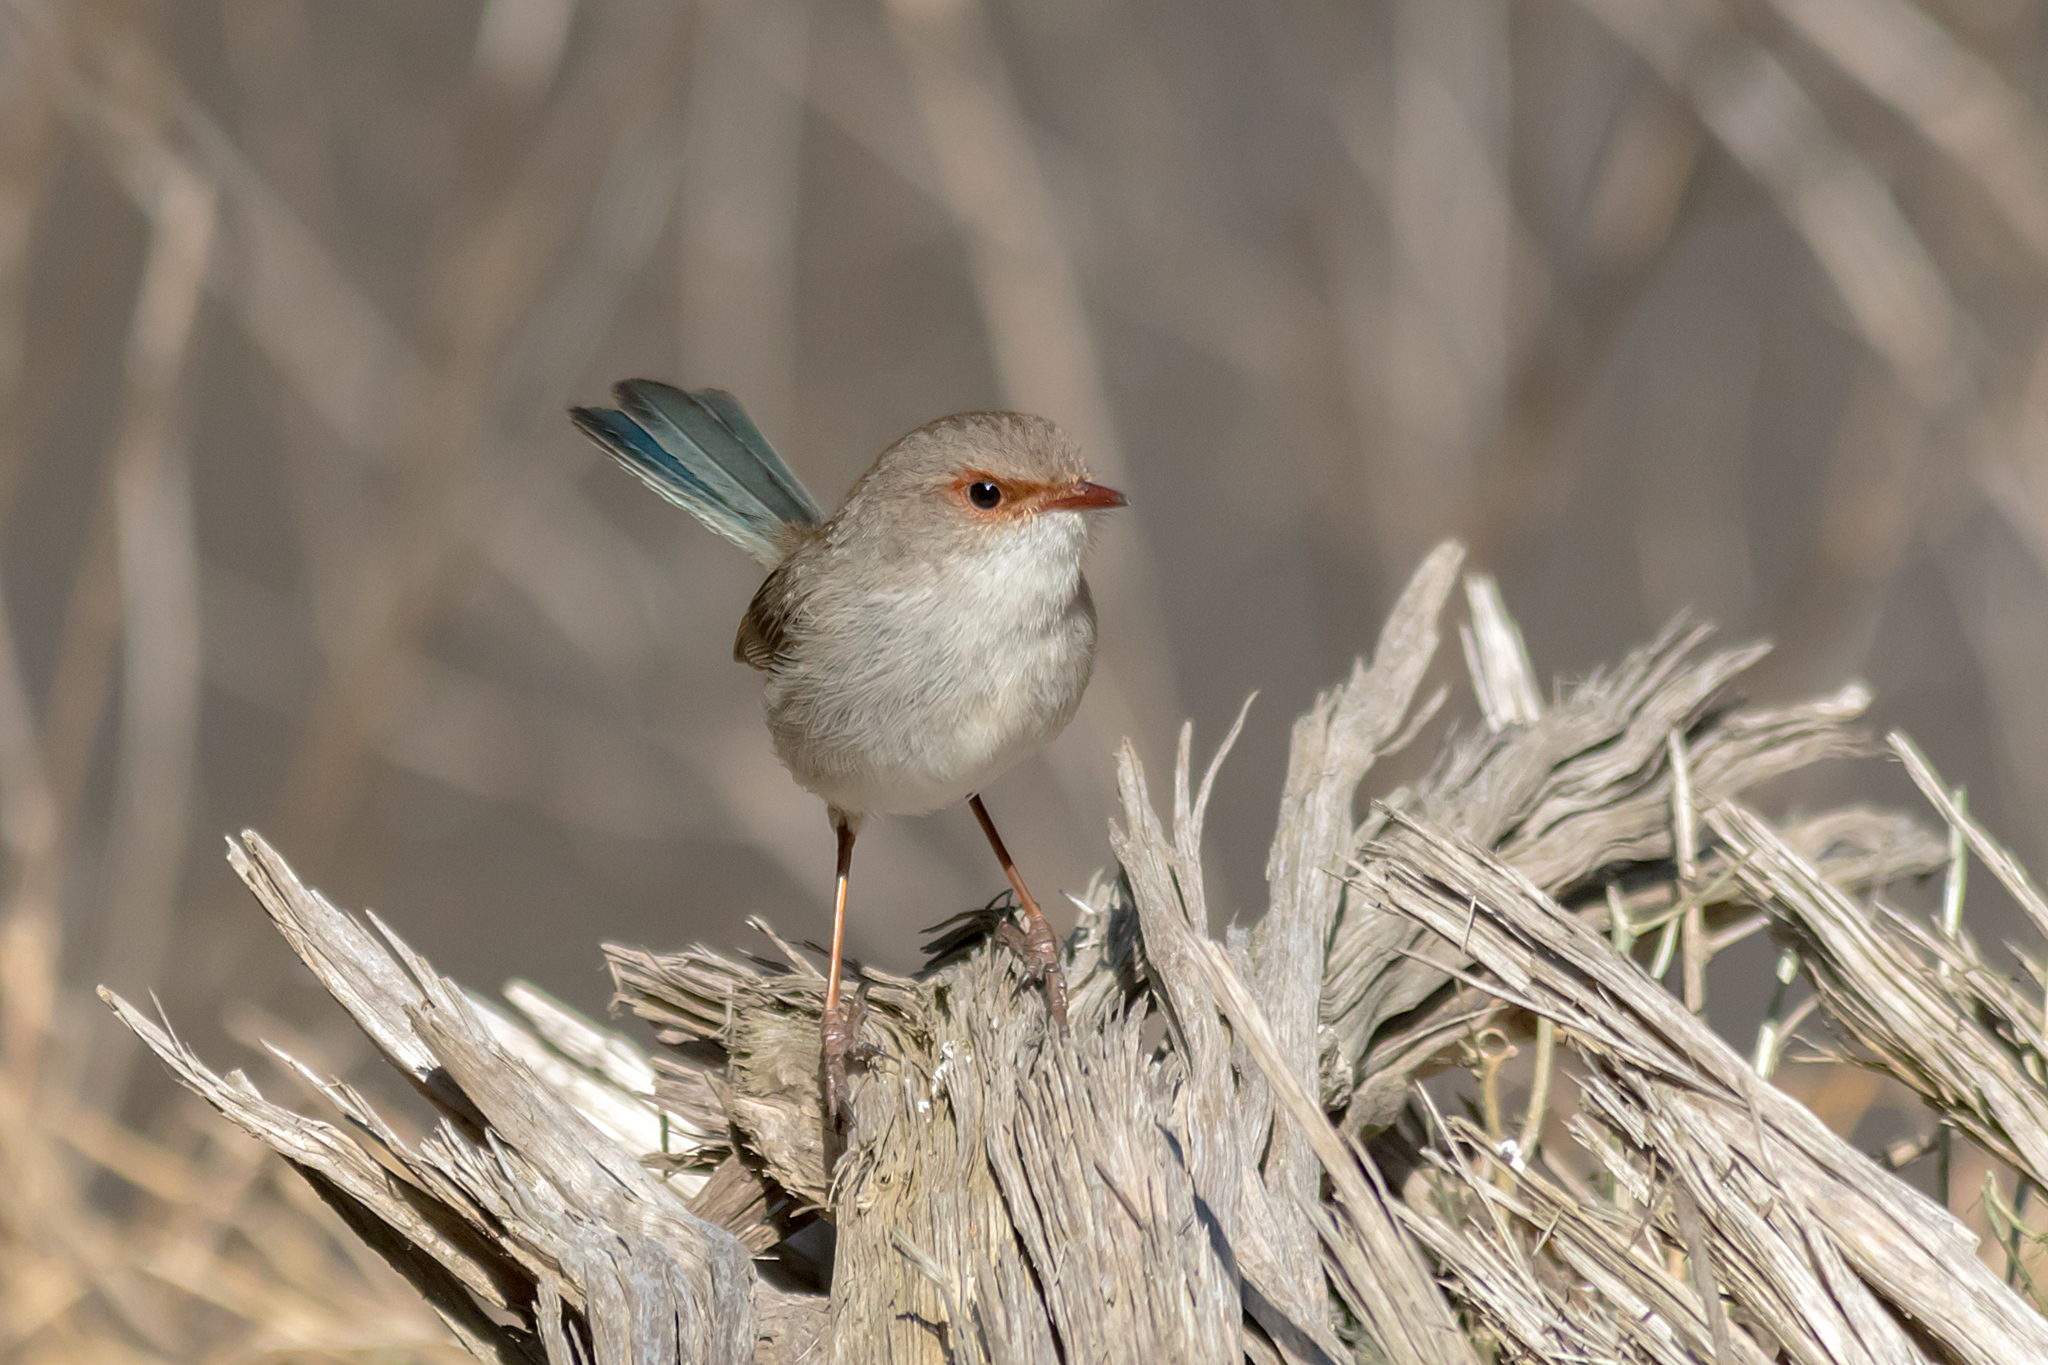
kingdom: Animalia
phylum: Chordata
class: Aves
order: Passeriformes
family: Maluridae
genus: Malurus
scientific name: Malurus cyaneus
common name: Superb fairywren
